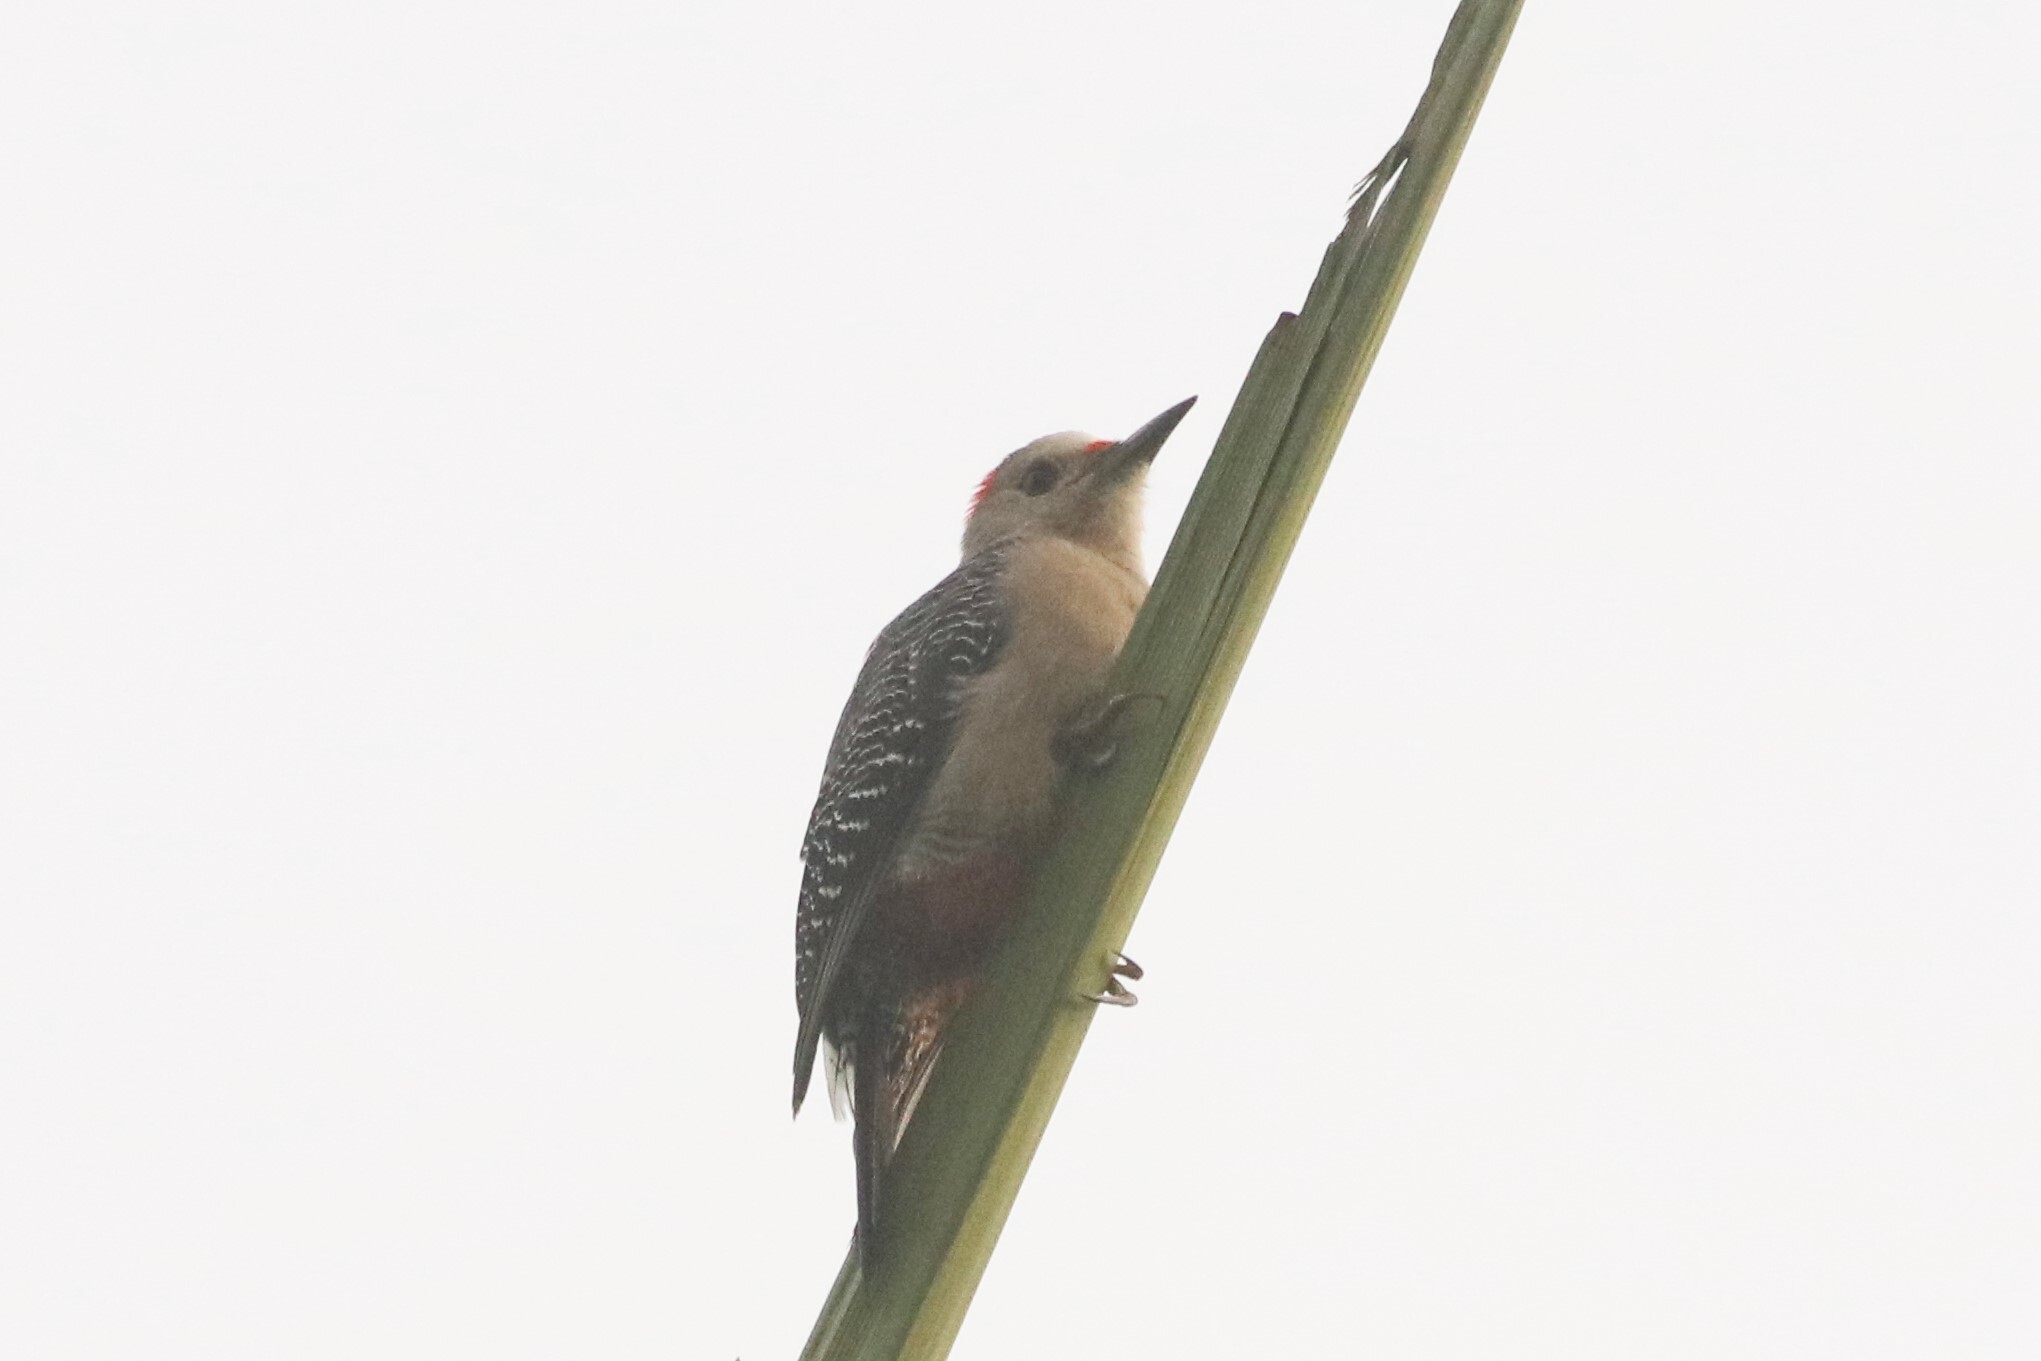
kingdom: Animalia
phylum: Chordata
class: Aves
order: Piciformes
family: Picidae
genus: Melanerpes
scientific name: Melanerpes aurifrons
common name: Golden-fronted woodpecker
